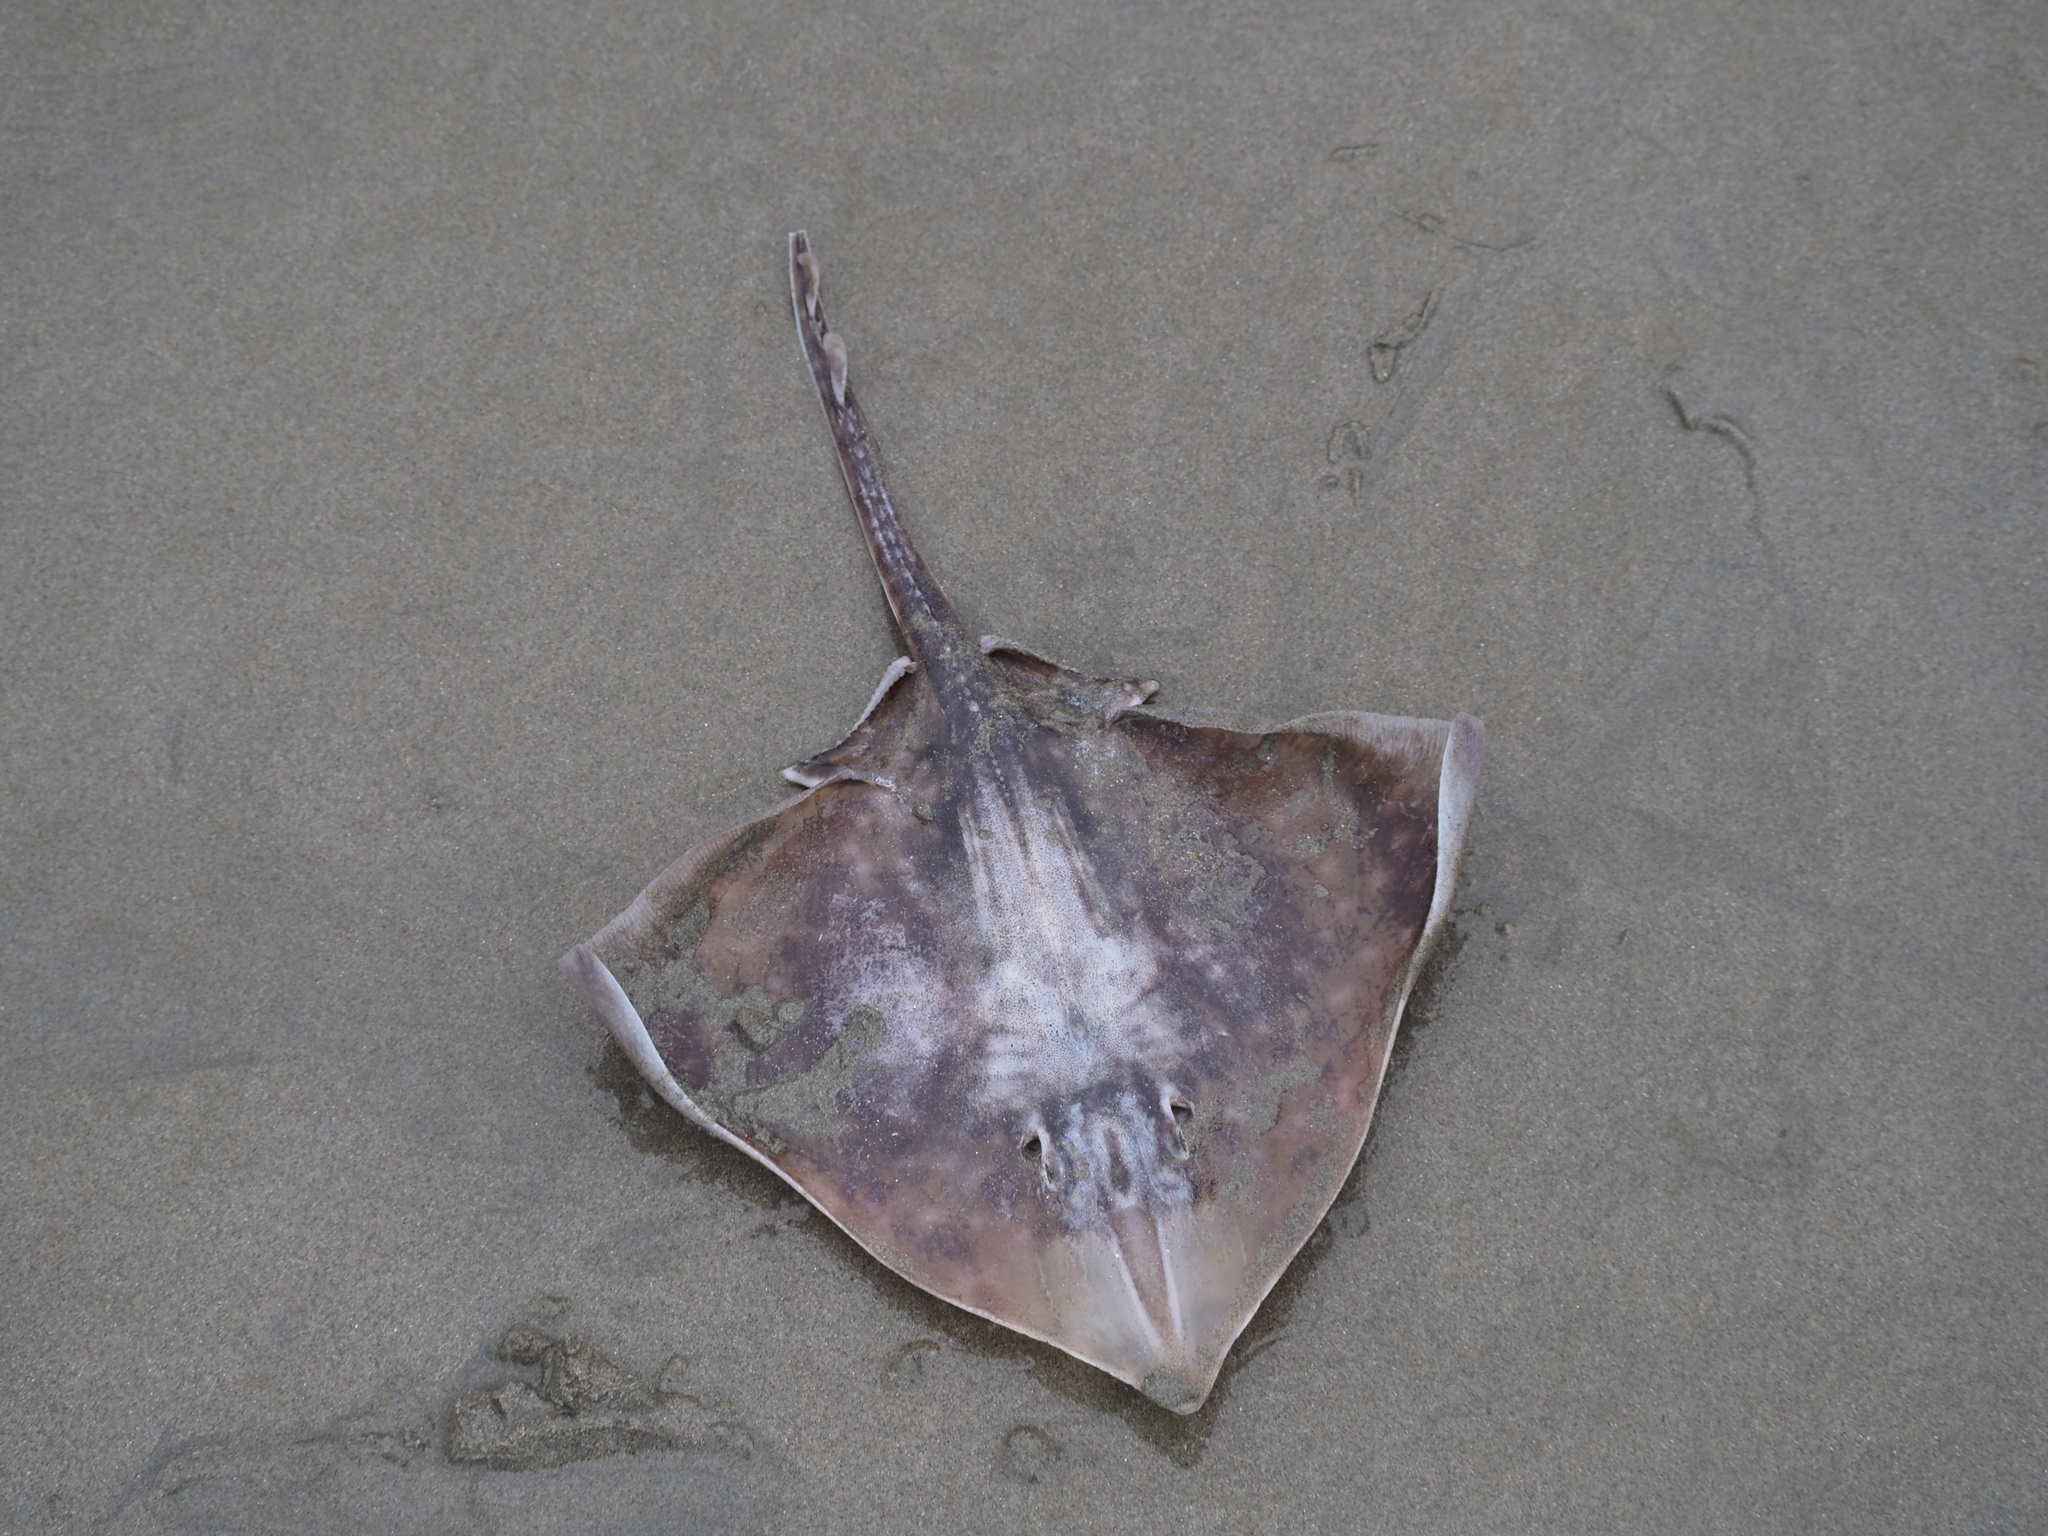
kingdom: Animalia
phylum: Chordata
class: Elasmobranchii
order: Rajiformes
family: Rajidae
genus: Beringraja
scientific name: Beringraja binoculata
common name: Big skate
